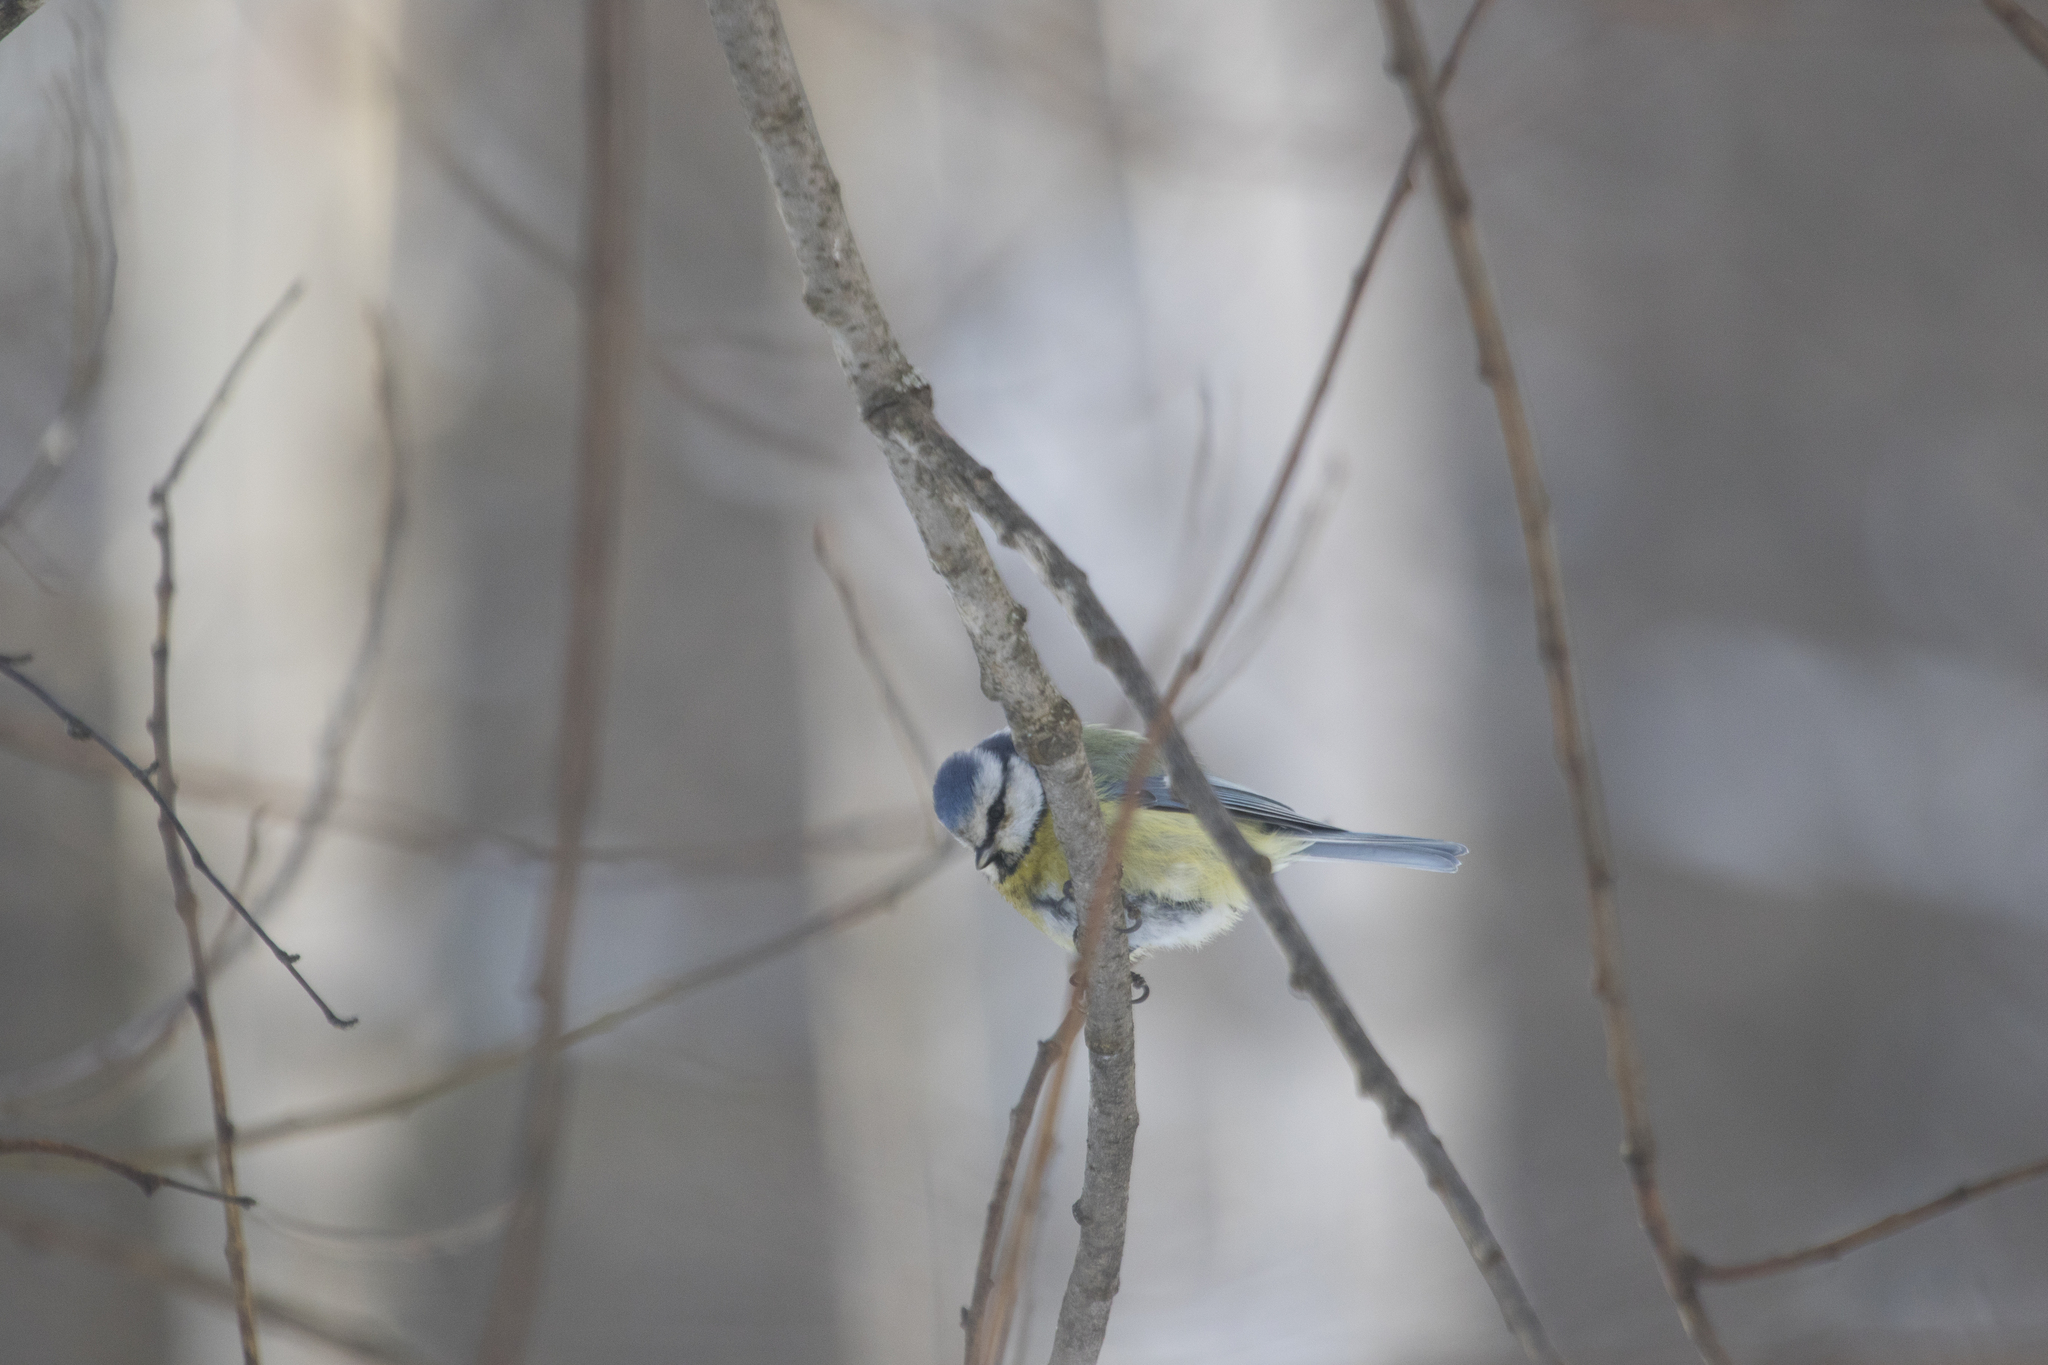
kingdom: Animalia
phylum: Chordata
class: Aves
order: Passeriformes
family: Paridae
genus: Cyanistes
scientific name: Cyanistes caeruleus
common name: Eurasian blue tit
